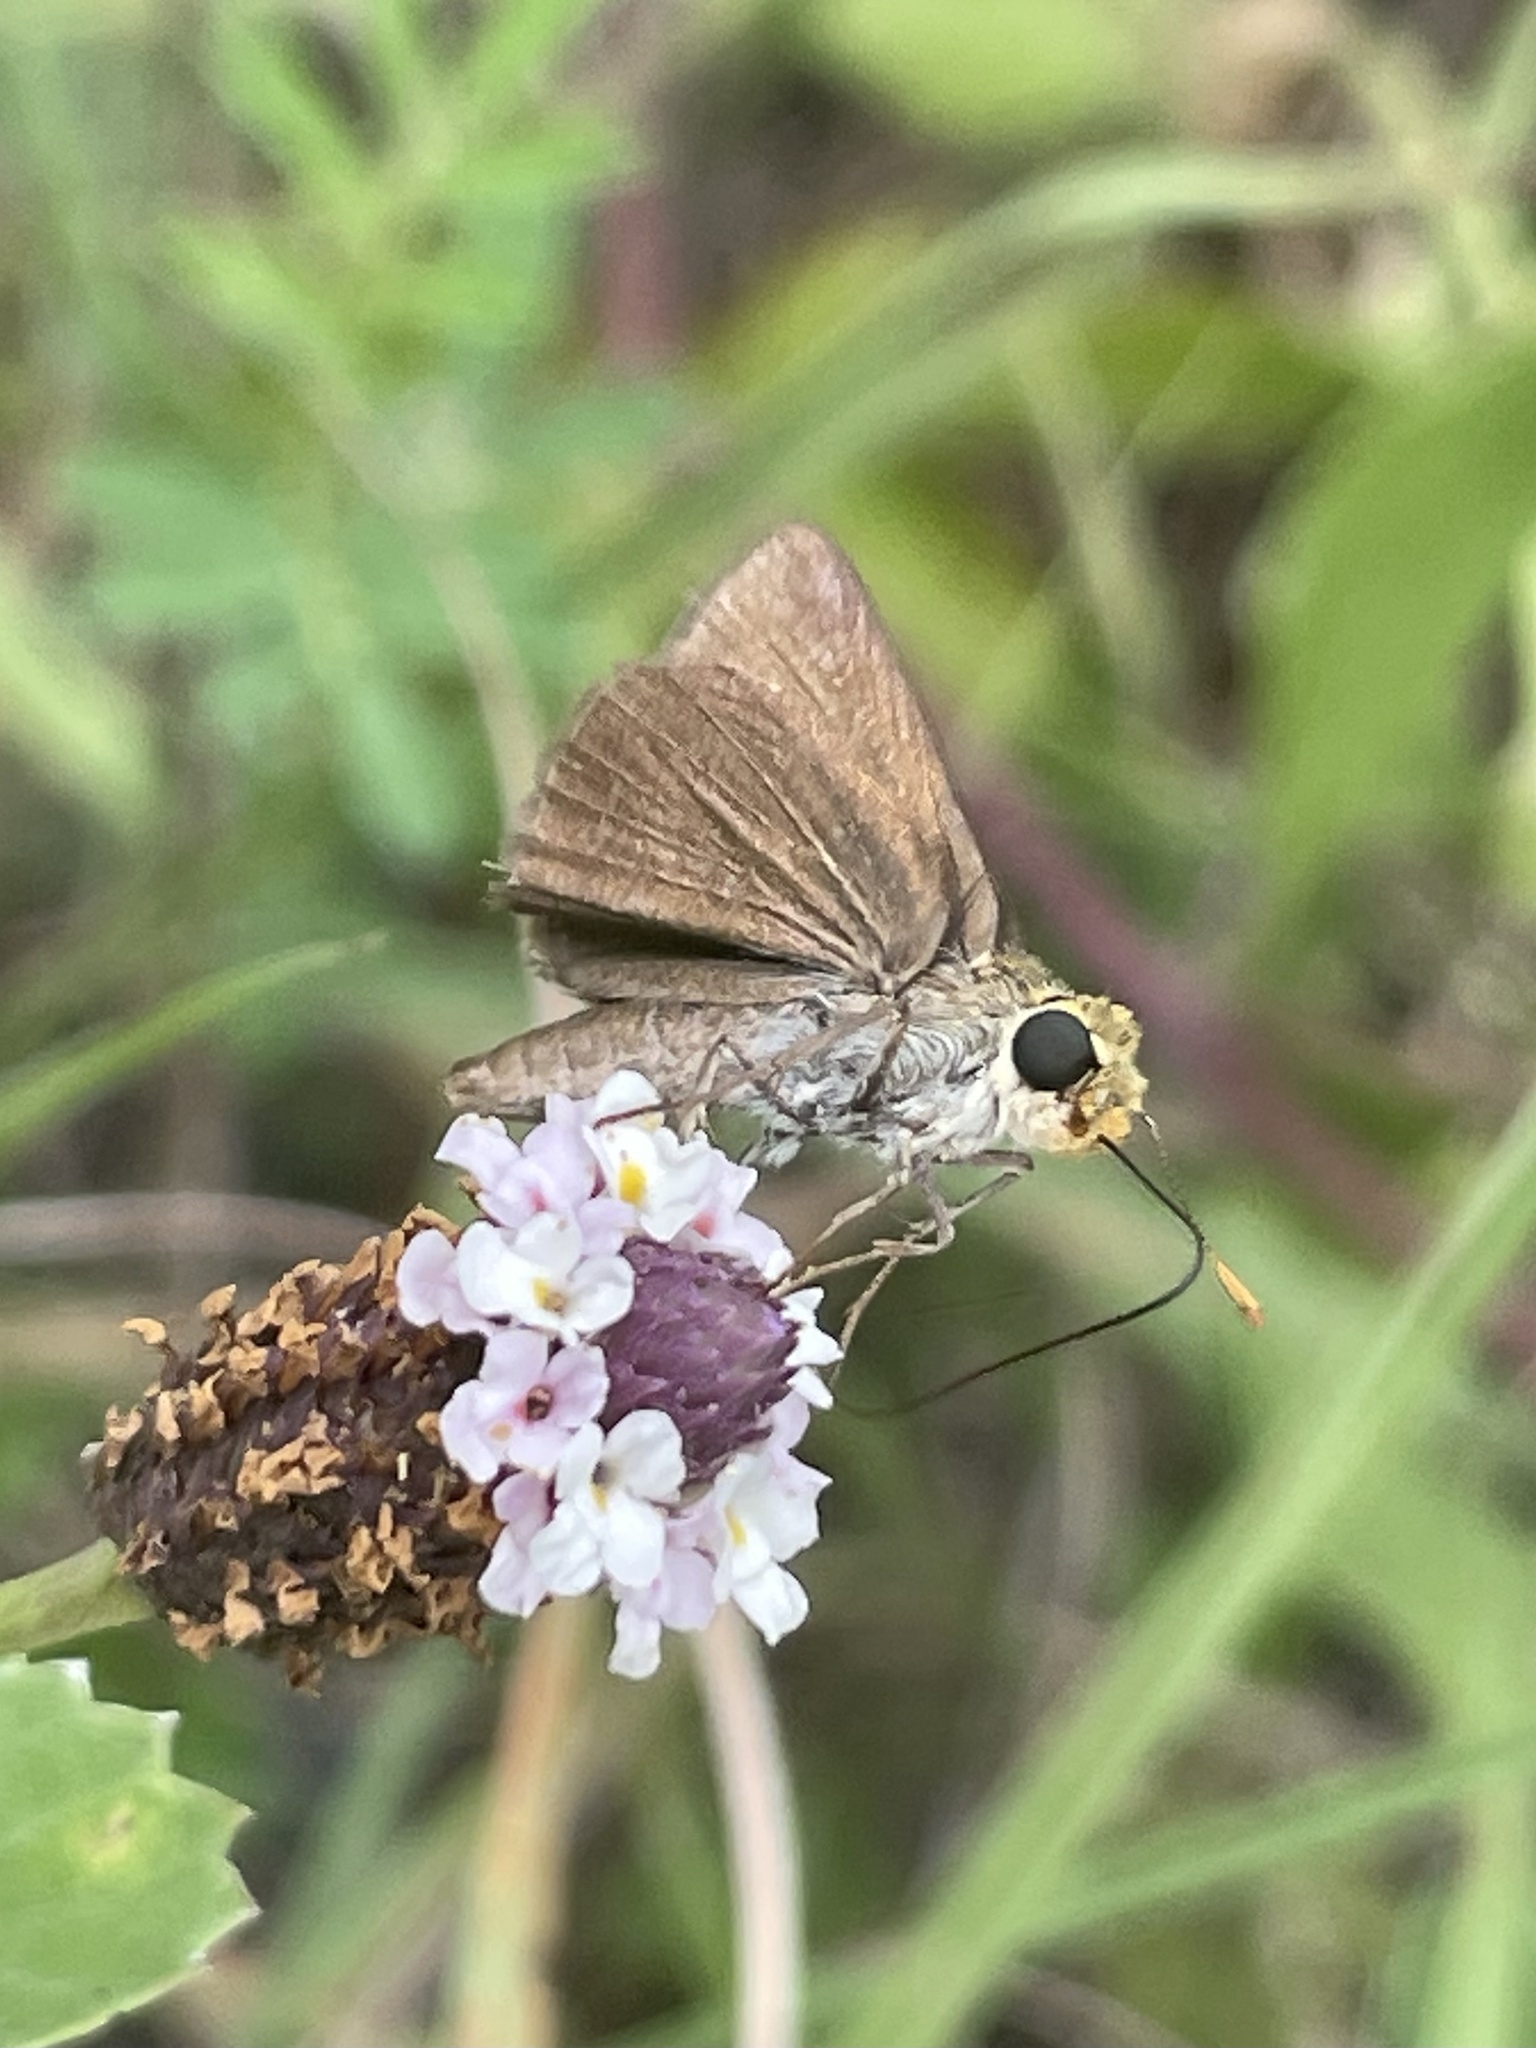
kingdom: Animalia
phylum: Arthropoda
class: Insecta
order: Lepidoptera
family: Hesperiidae
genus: Euphyes
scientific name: Euphyes vestris
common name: Dun skipper
